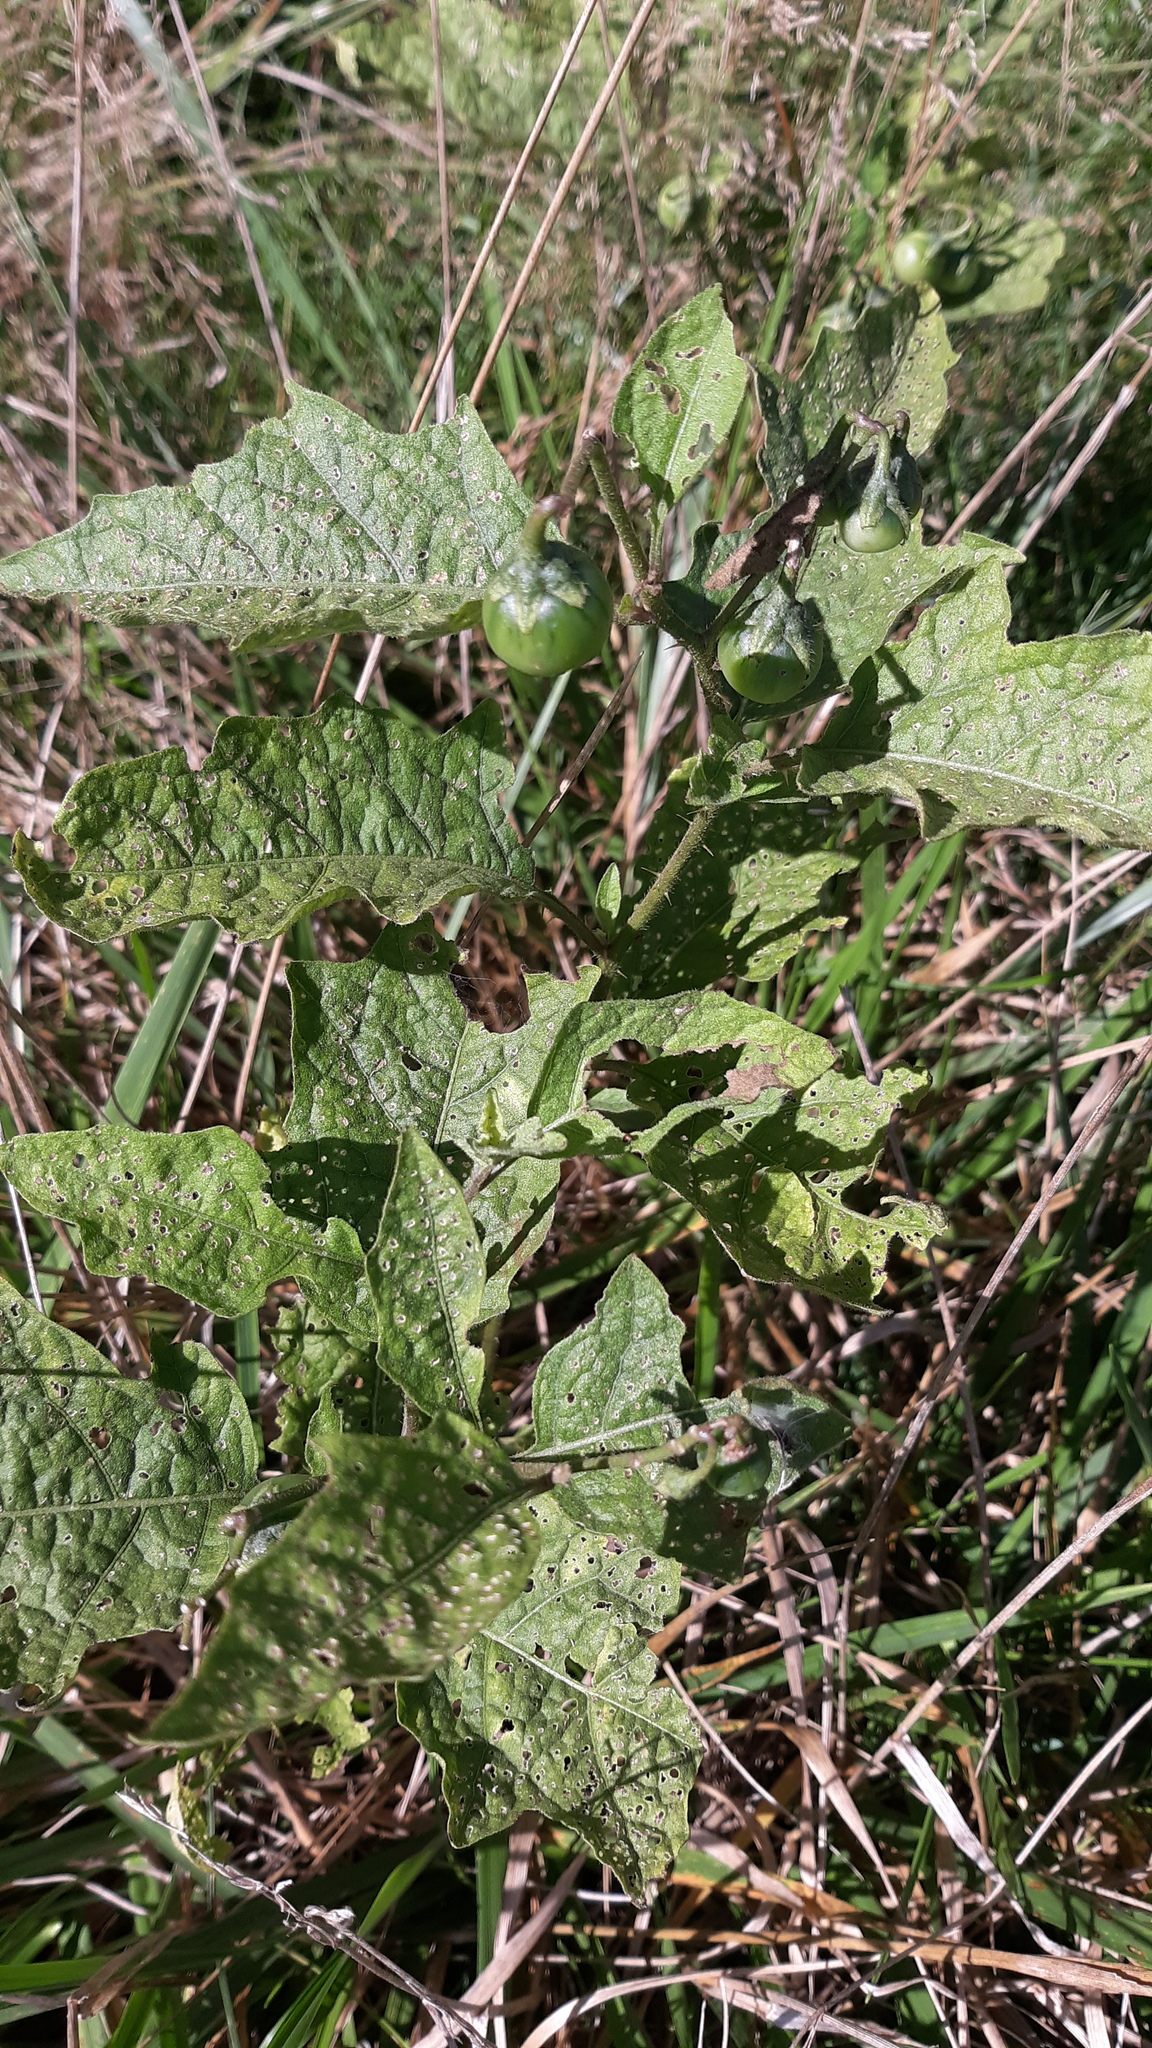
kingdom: Plantae
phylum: Tracheophyta
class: Magnoliopsida
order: Solanales
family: Solanaceae
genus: Solanum
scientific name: Solanum carolinense
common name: Horse-nettle
